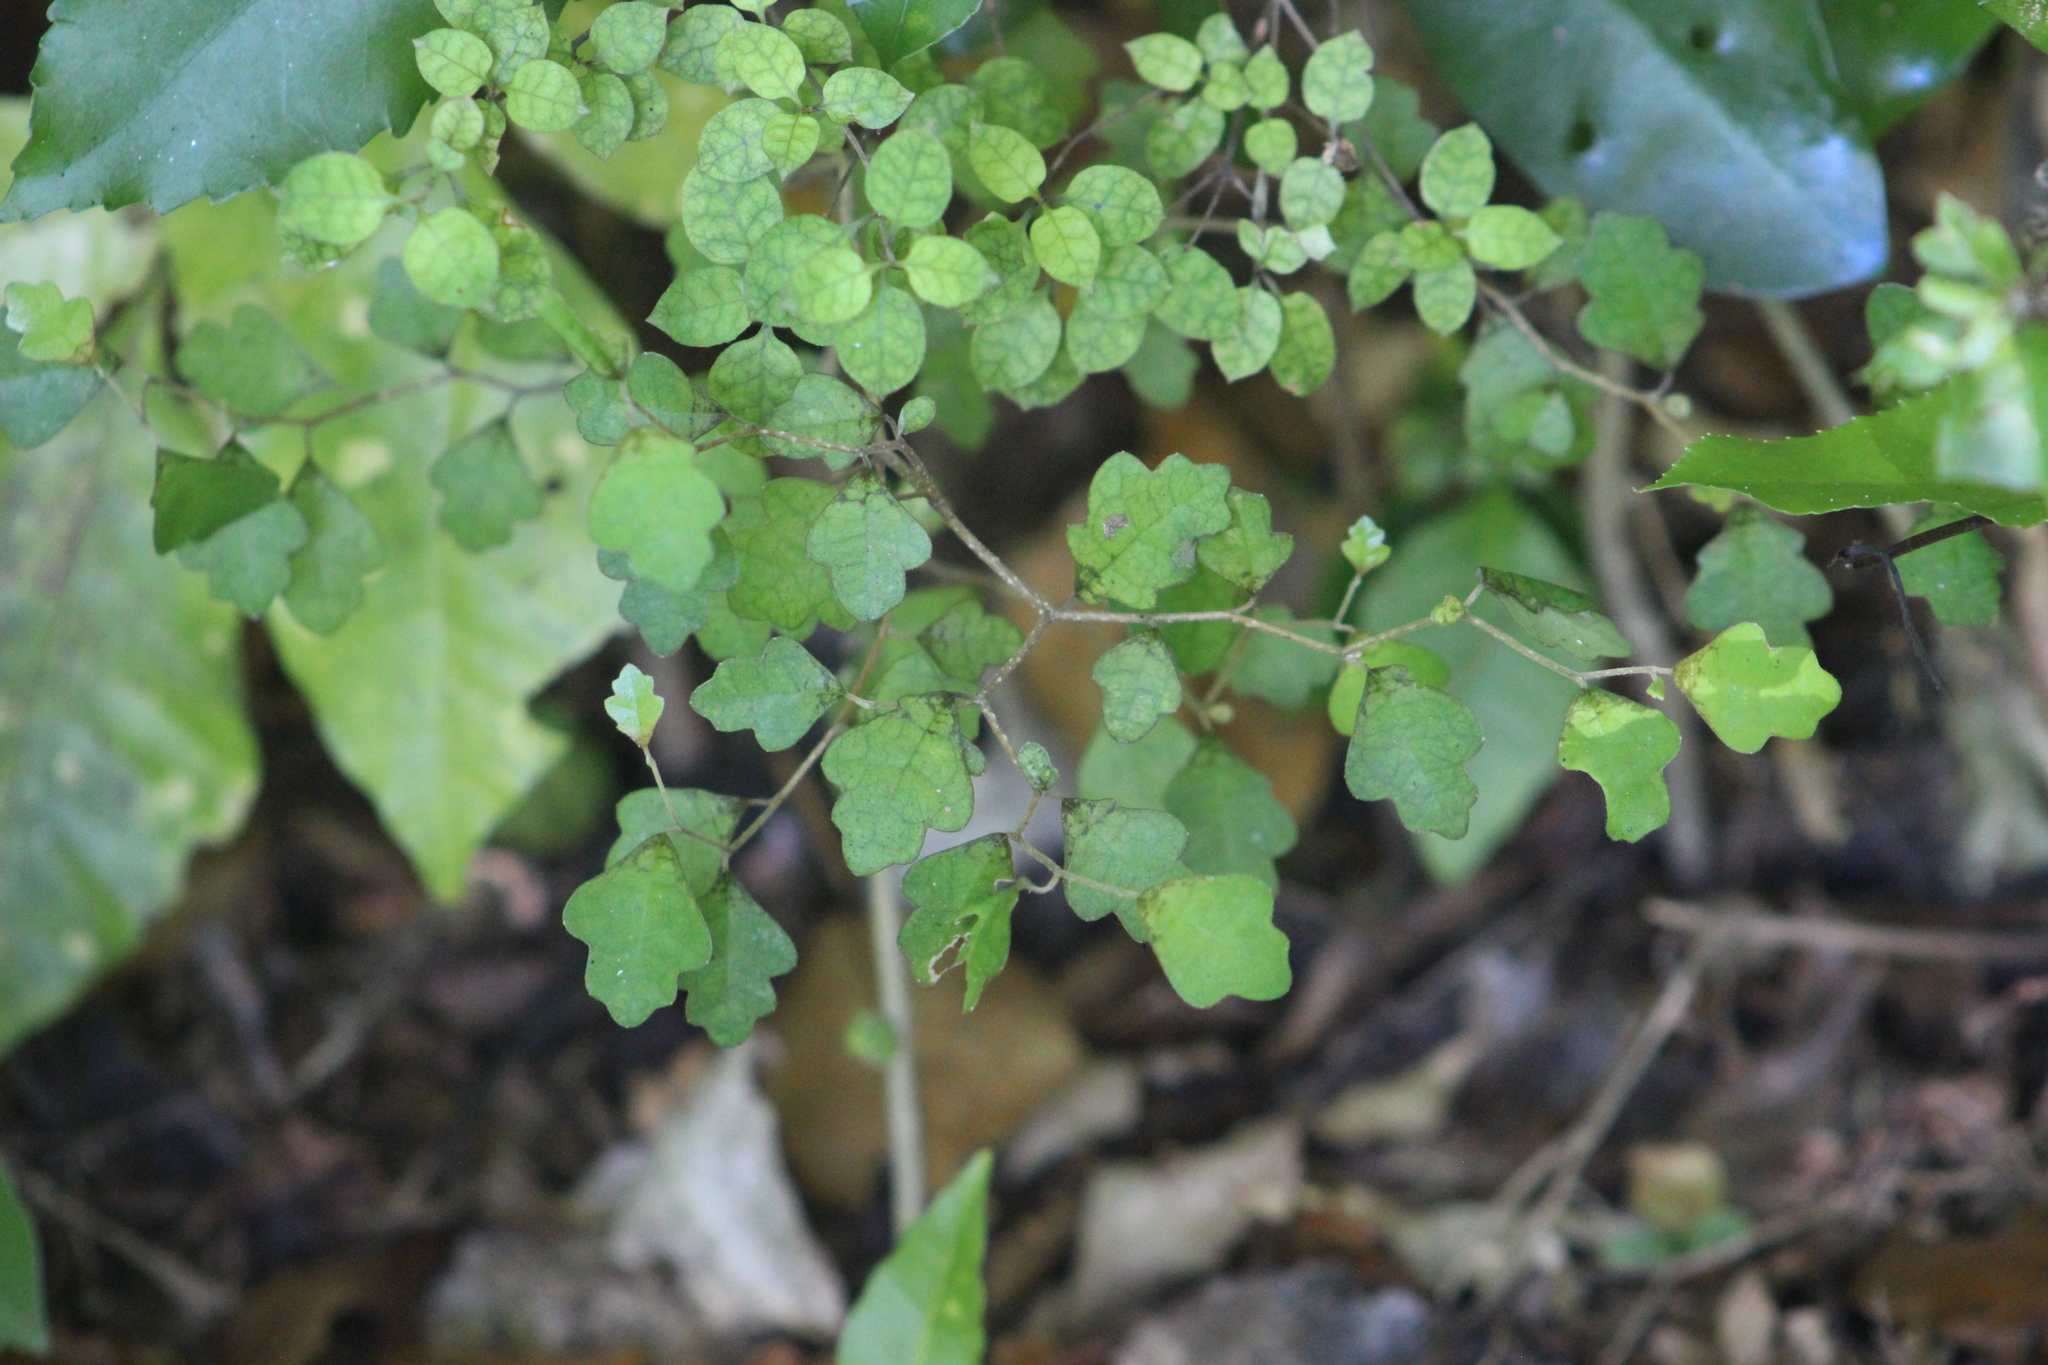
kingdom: Plantae
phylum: Tracheophyta
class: Magnoliopsida
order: Apiales
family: Pennantiaceae
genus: Pennantia
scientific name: Pennantia corymbosa
